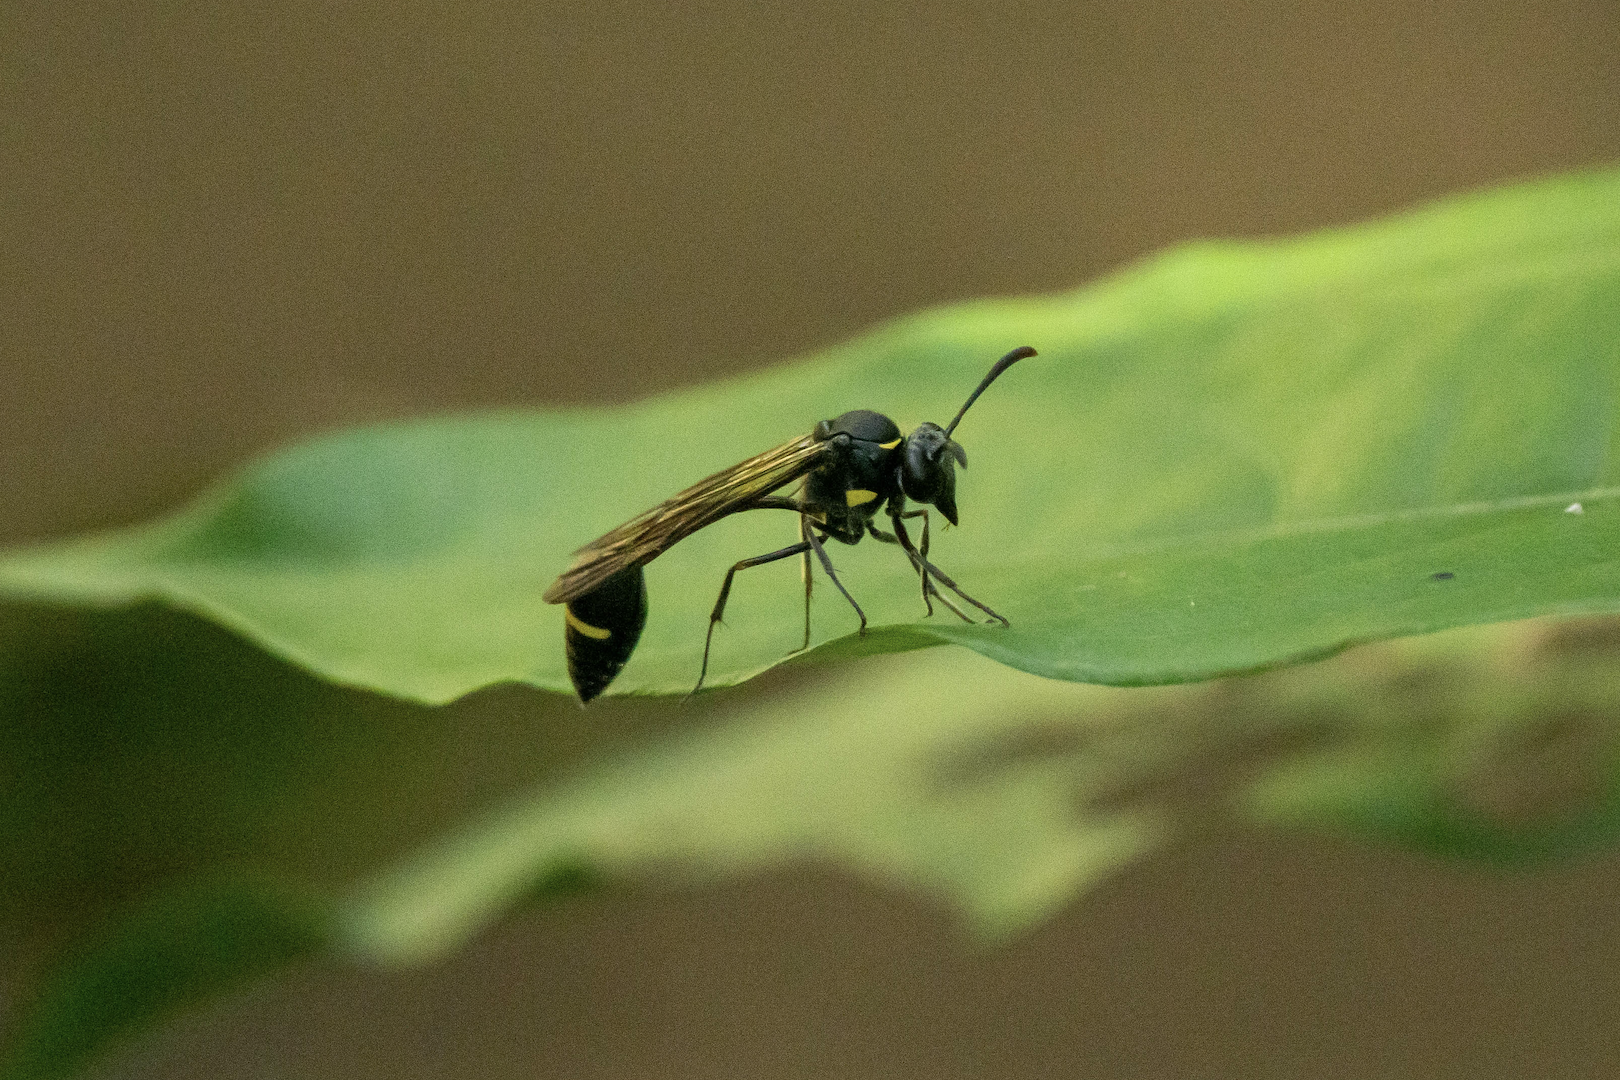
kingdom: Animalia
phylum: Arthropoda
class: Insecta
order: Hymenoptera
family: Vespidae
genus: Eustenogaster
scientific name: Eustenogaster nigra
